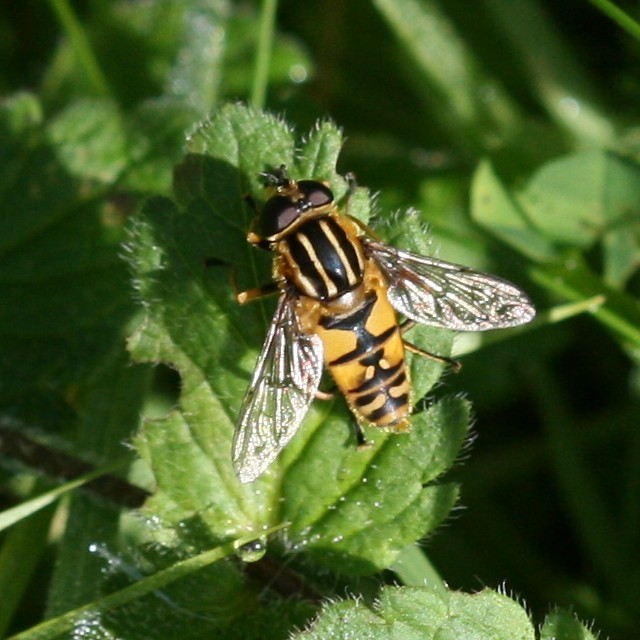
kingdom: Animalia
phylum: Arthropoda
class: Insecta
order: Diptera
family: Syrphidae
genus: Helophilus
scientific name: Helophilus pendulus
